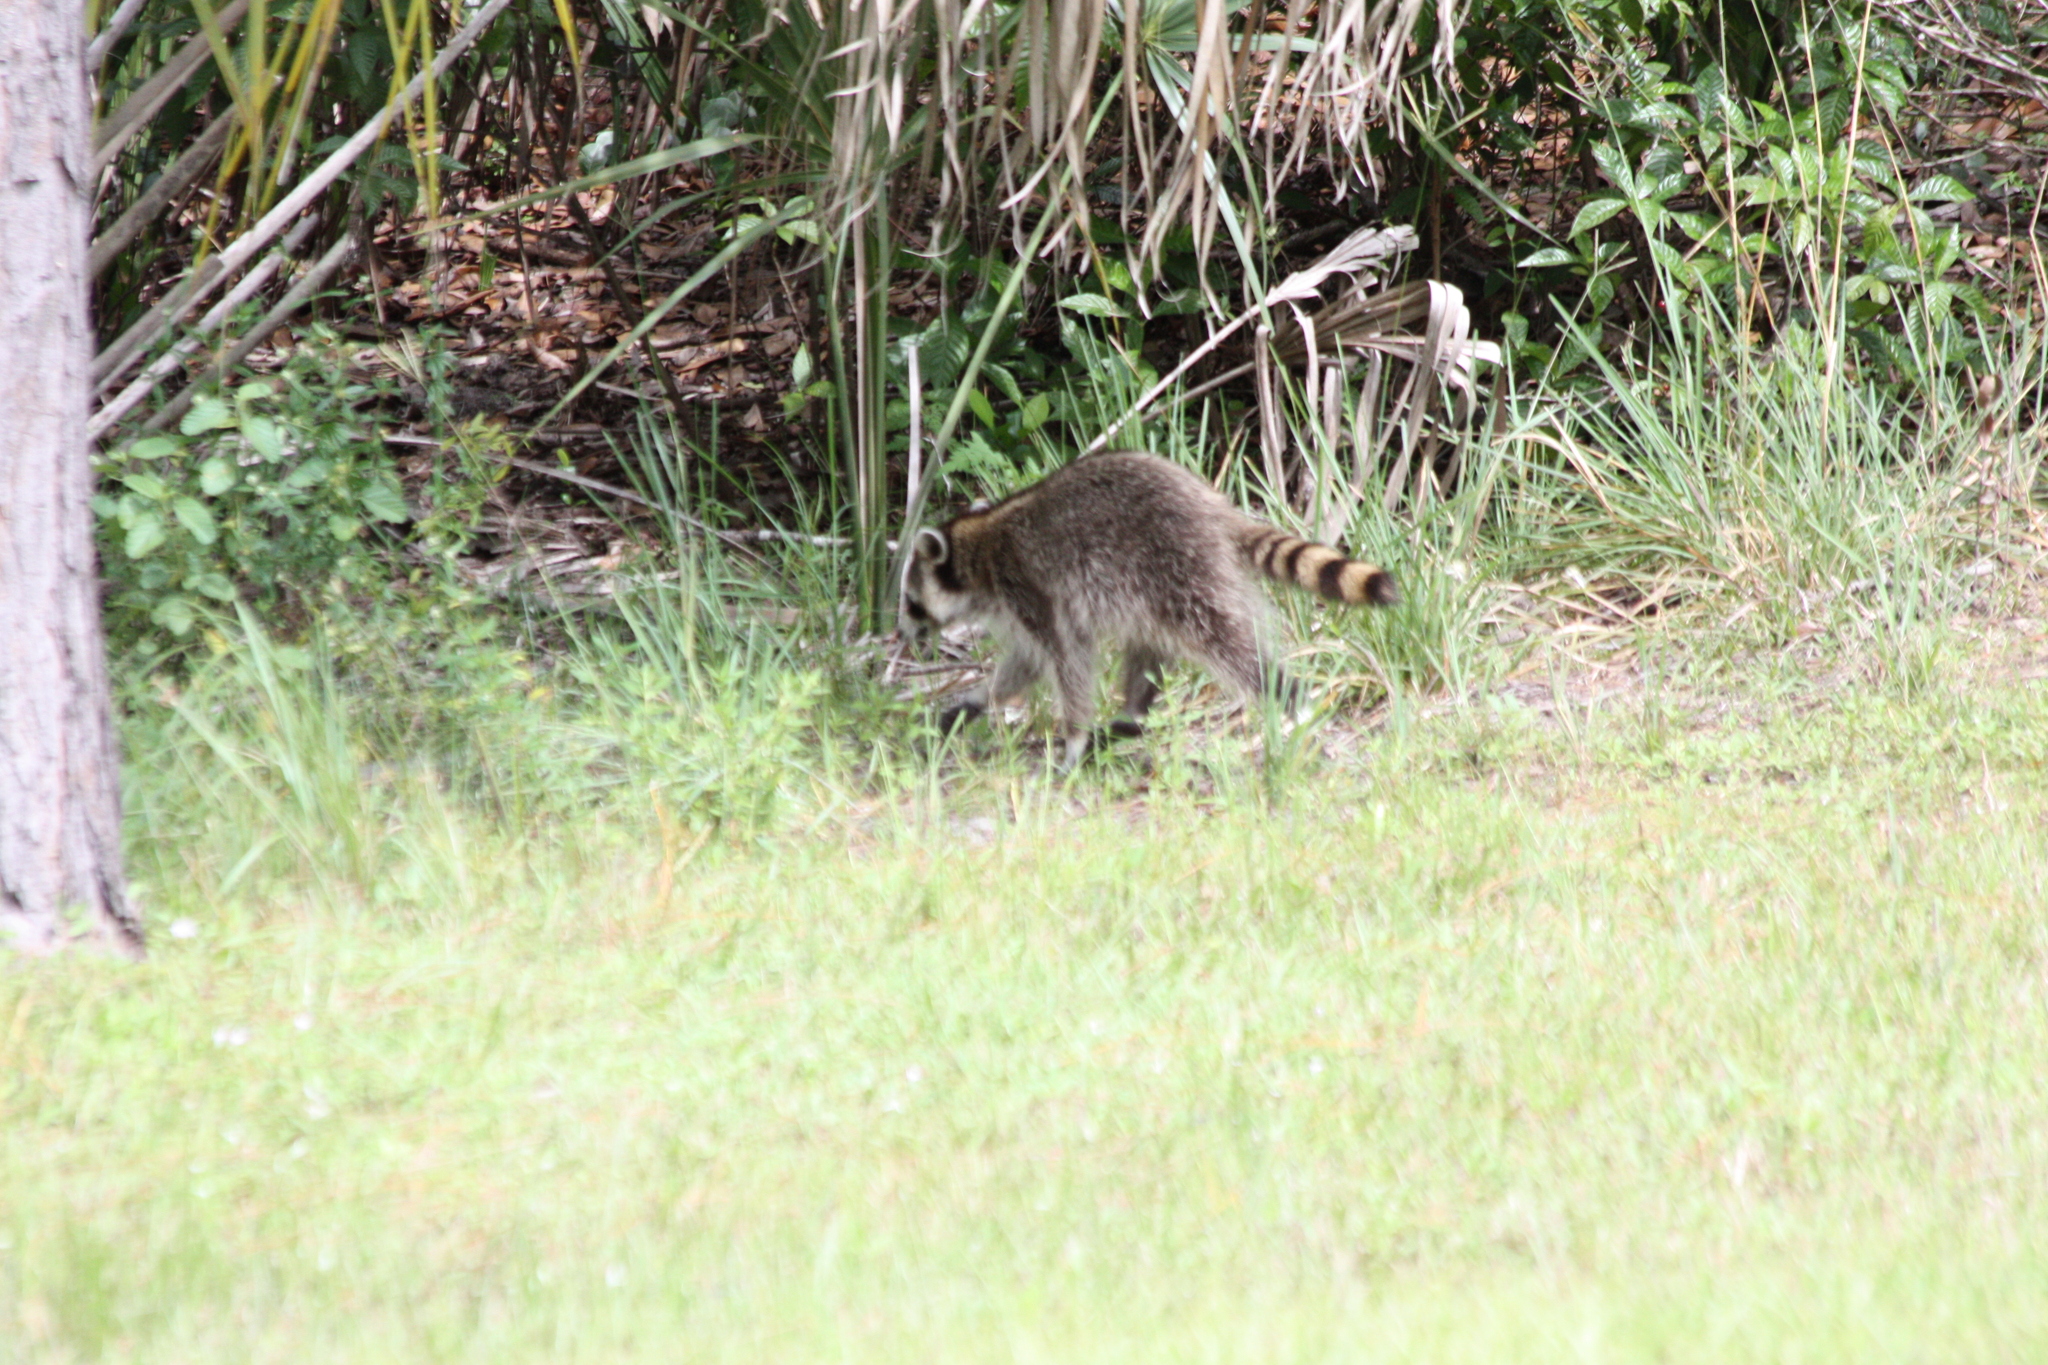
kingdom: Animalia
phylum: Chordata
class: Mammalia
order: Carnivora
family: Procyonidae
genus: Procyon
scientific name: Procyon lotor
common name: Raccoon
